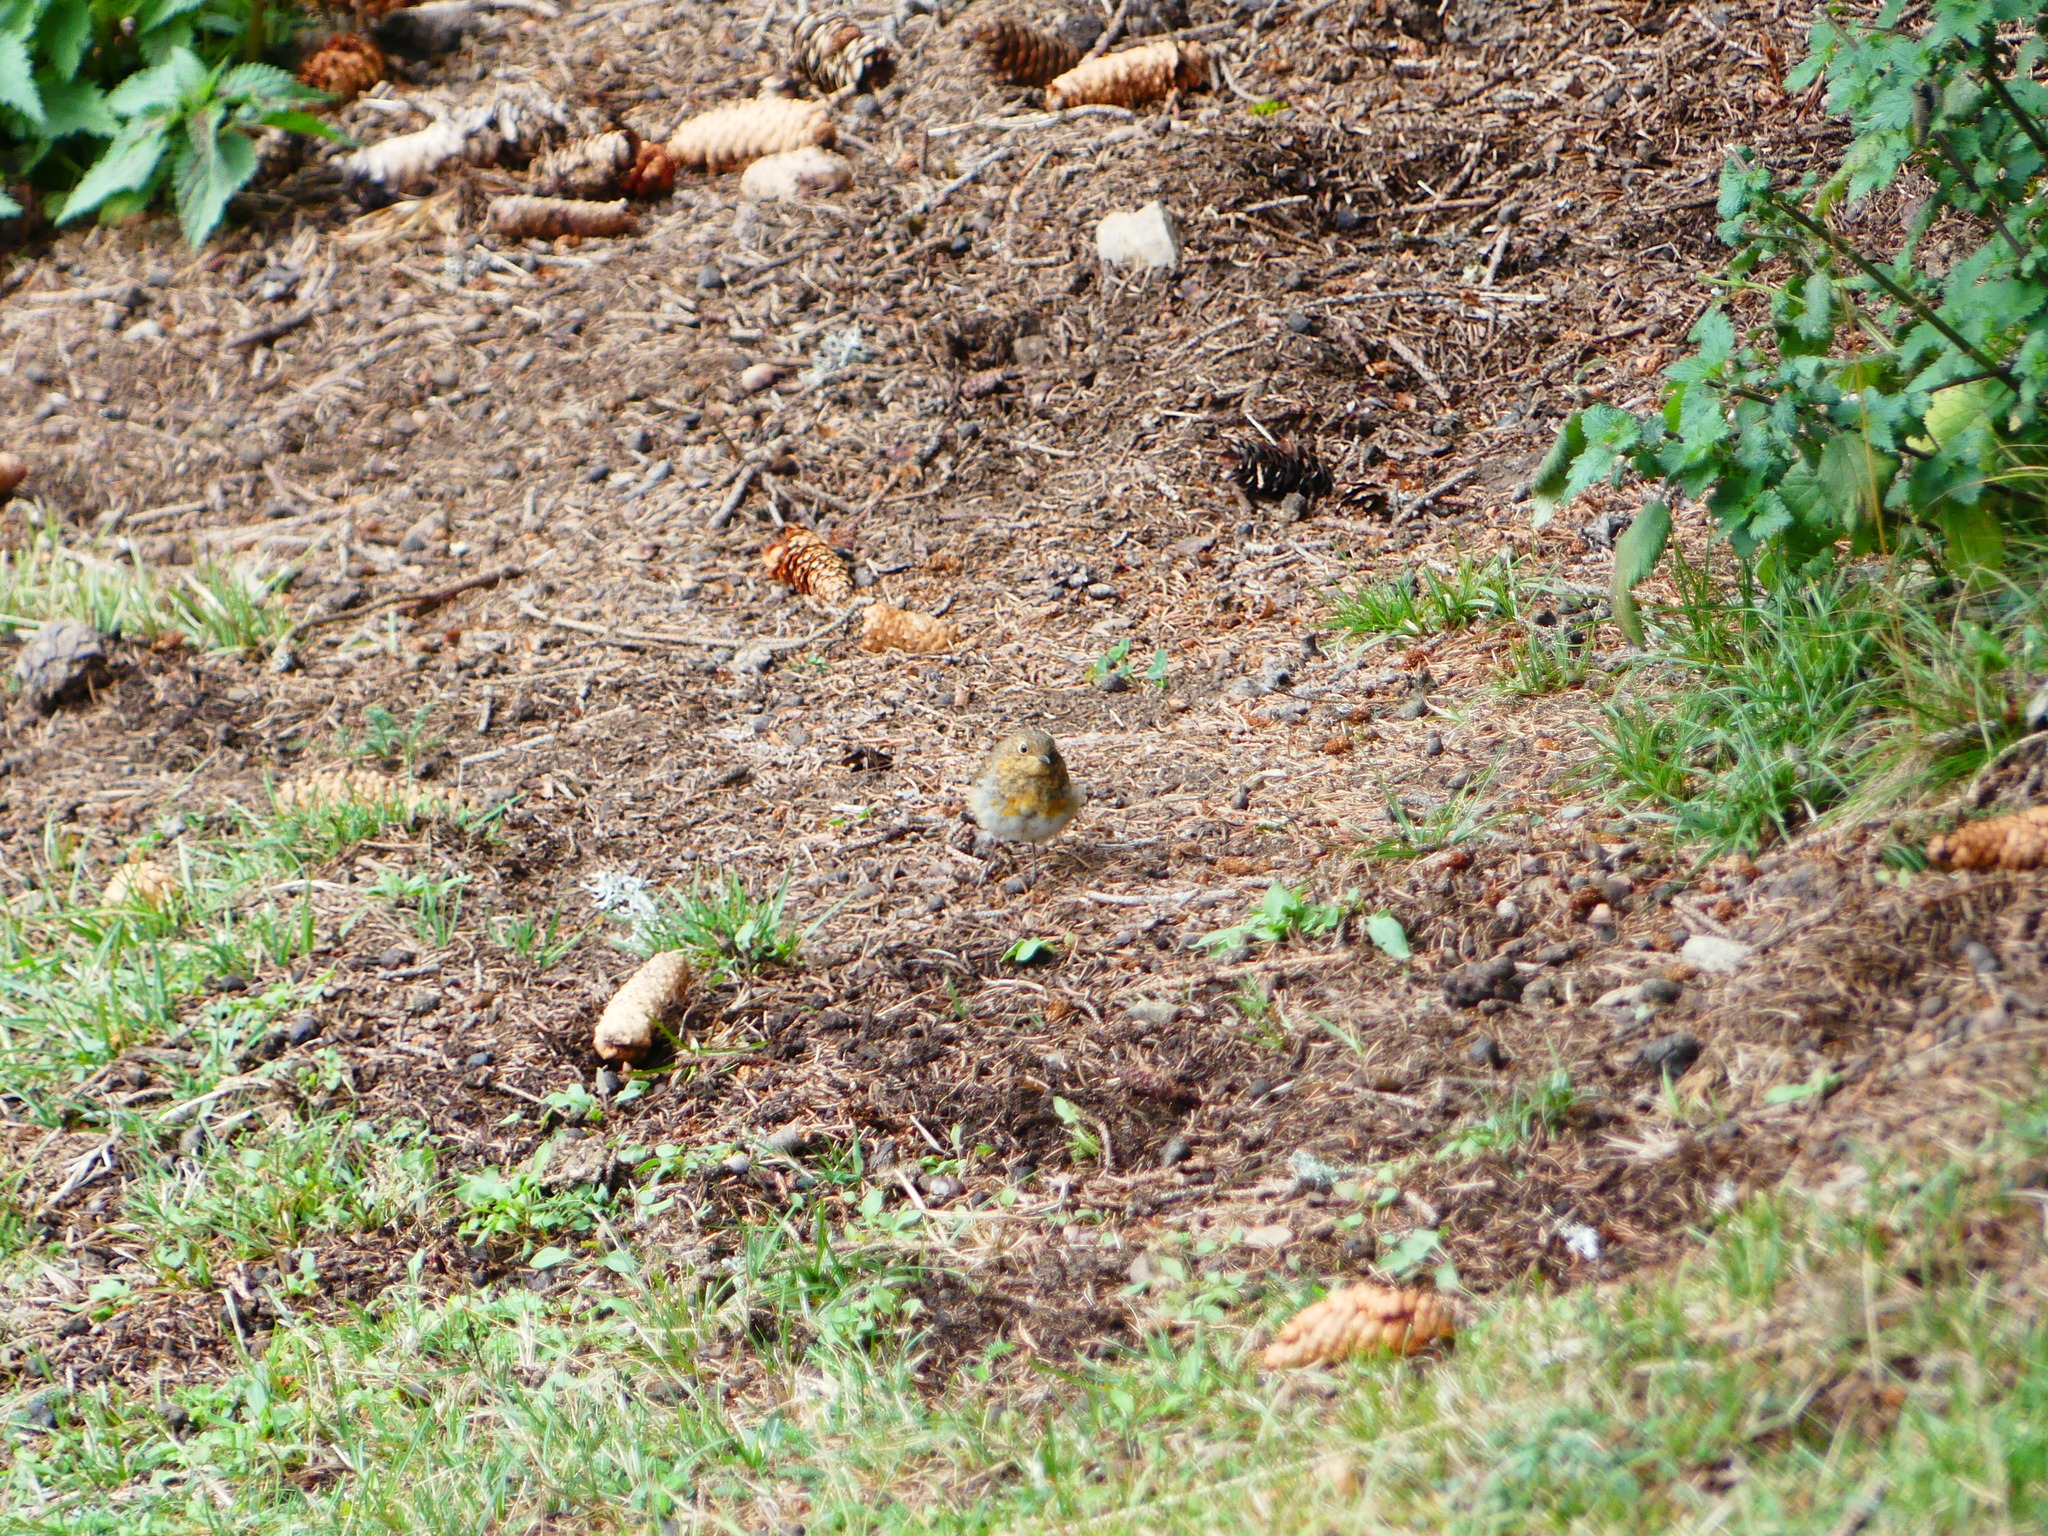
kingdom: Animalia
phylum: Chordata
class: Aves
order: Passeriformes
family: Muscicapidae
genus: Erithacus
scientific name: Erithacus rubecula
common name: European robin
